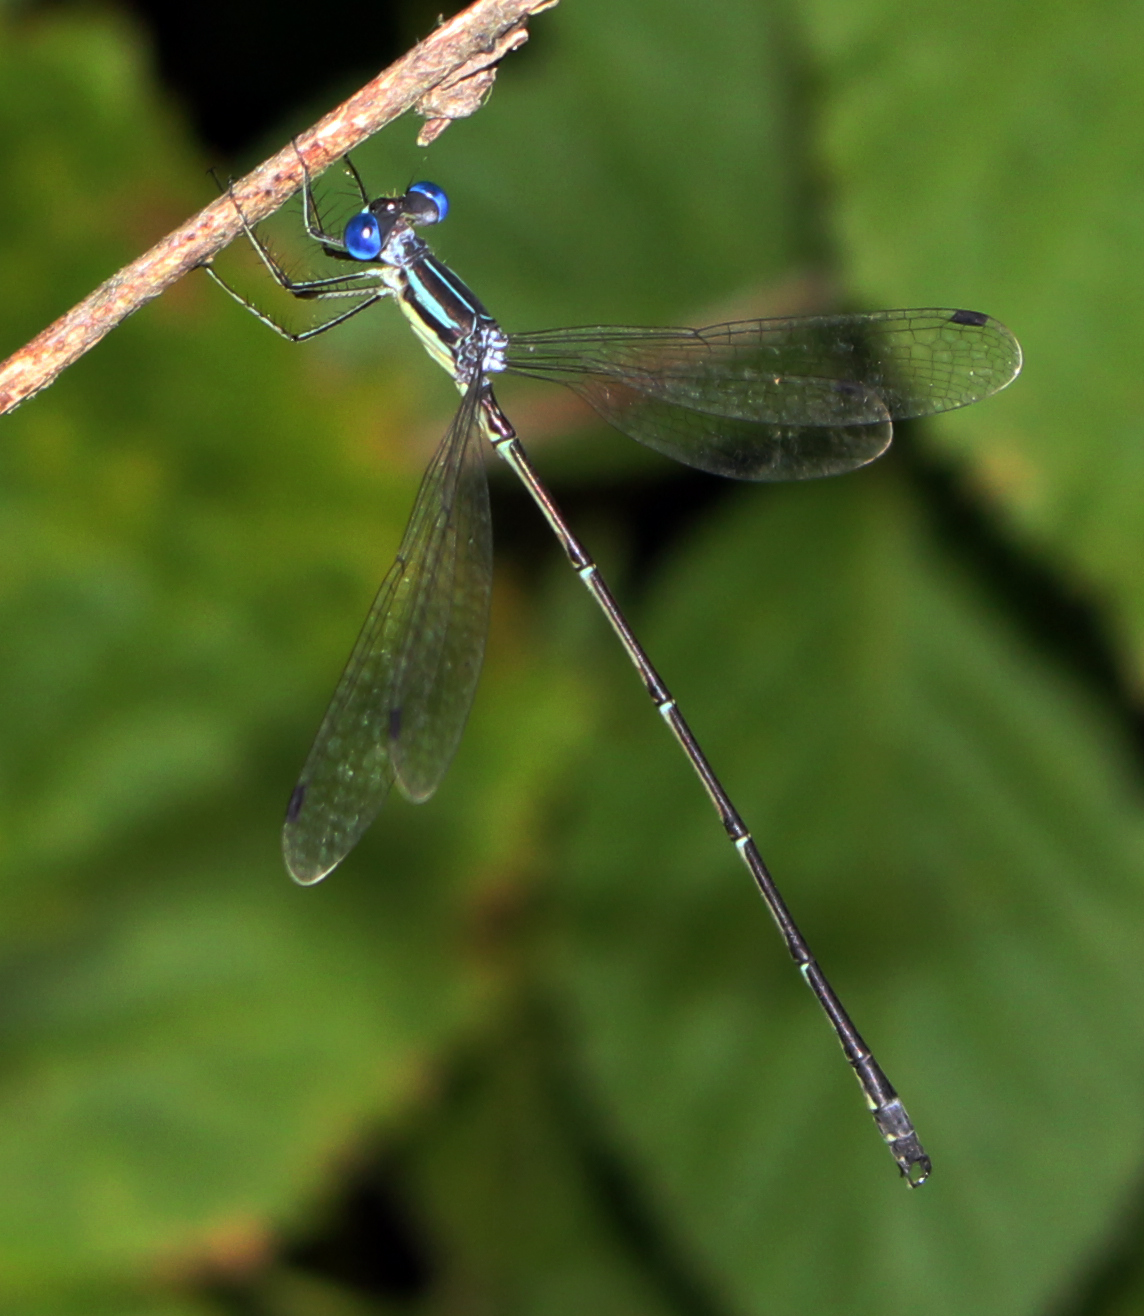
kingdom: Animalia
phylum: Arthropoda
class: Insecta
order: Odonata
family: Lestidae
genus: Lestes
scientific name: Lestes rectangularis
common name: Slender spreadwing
